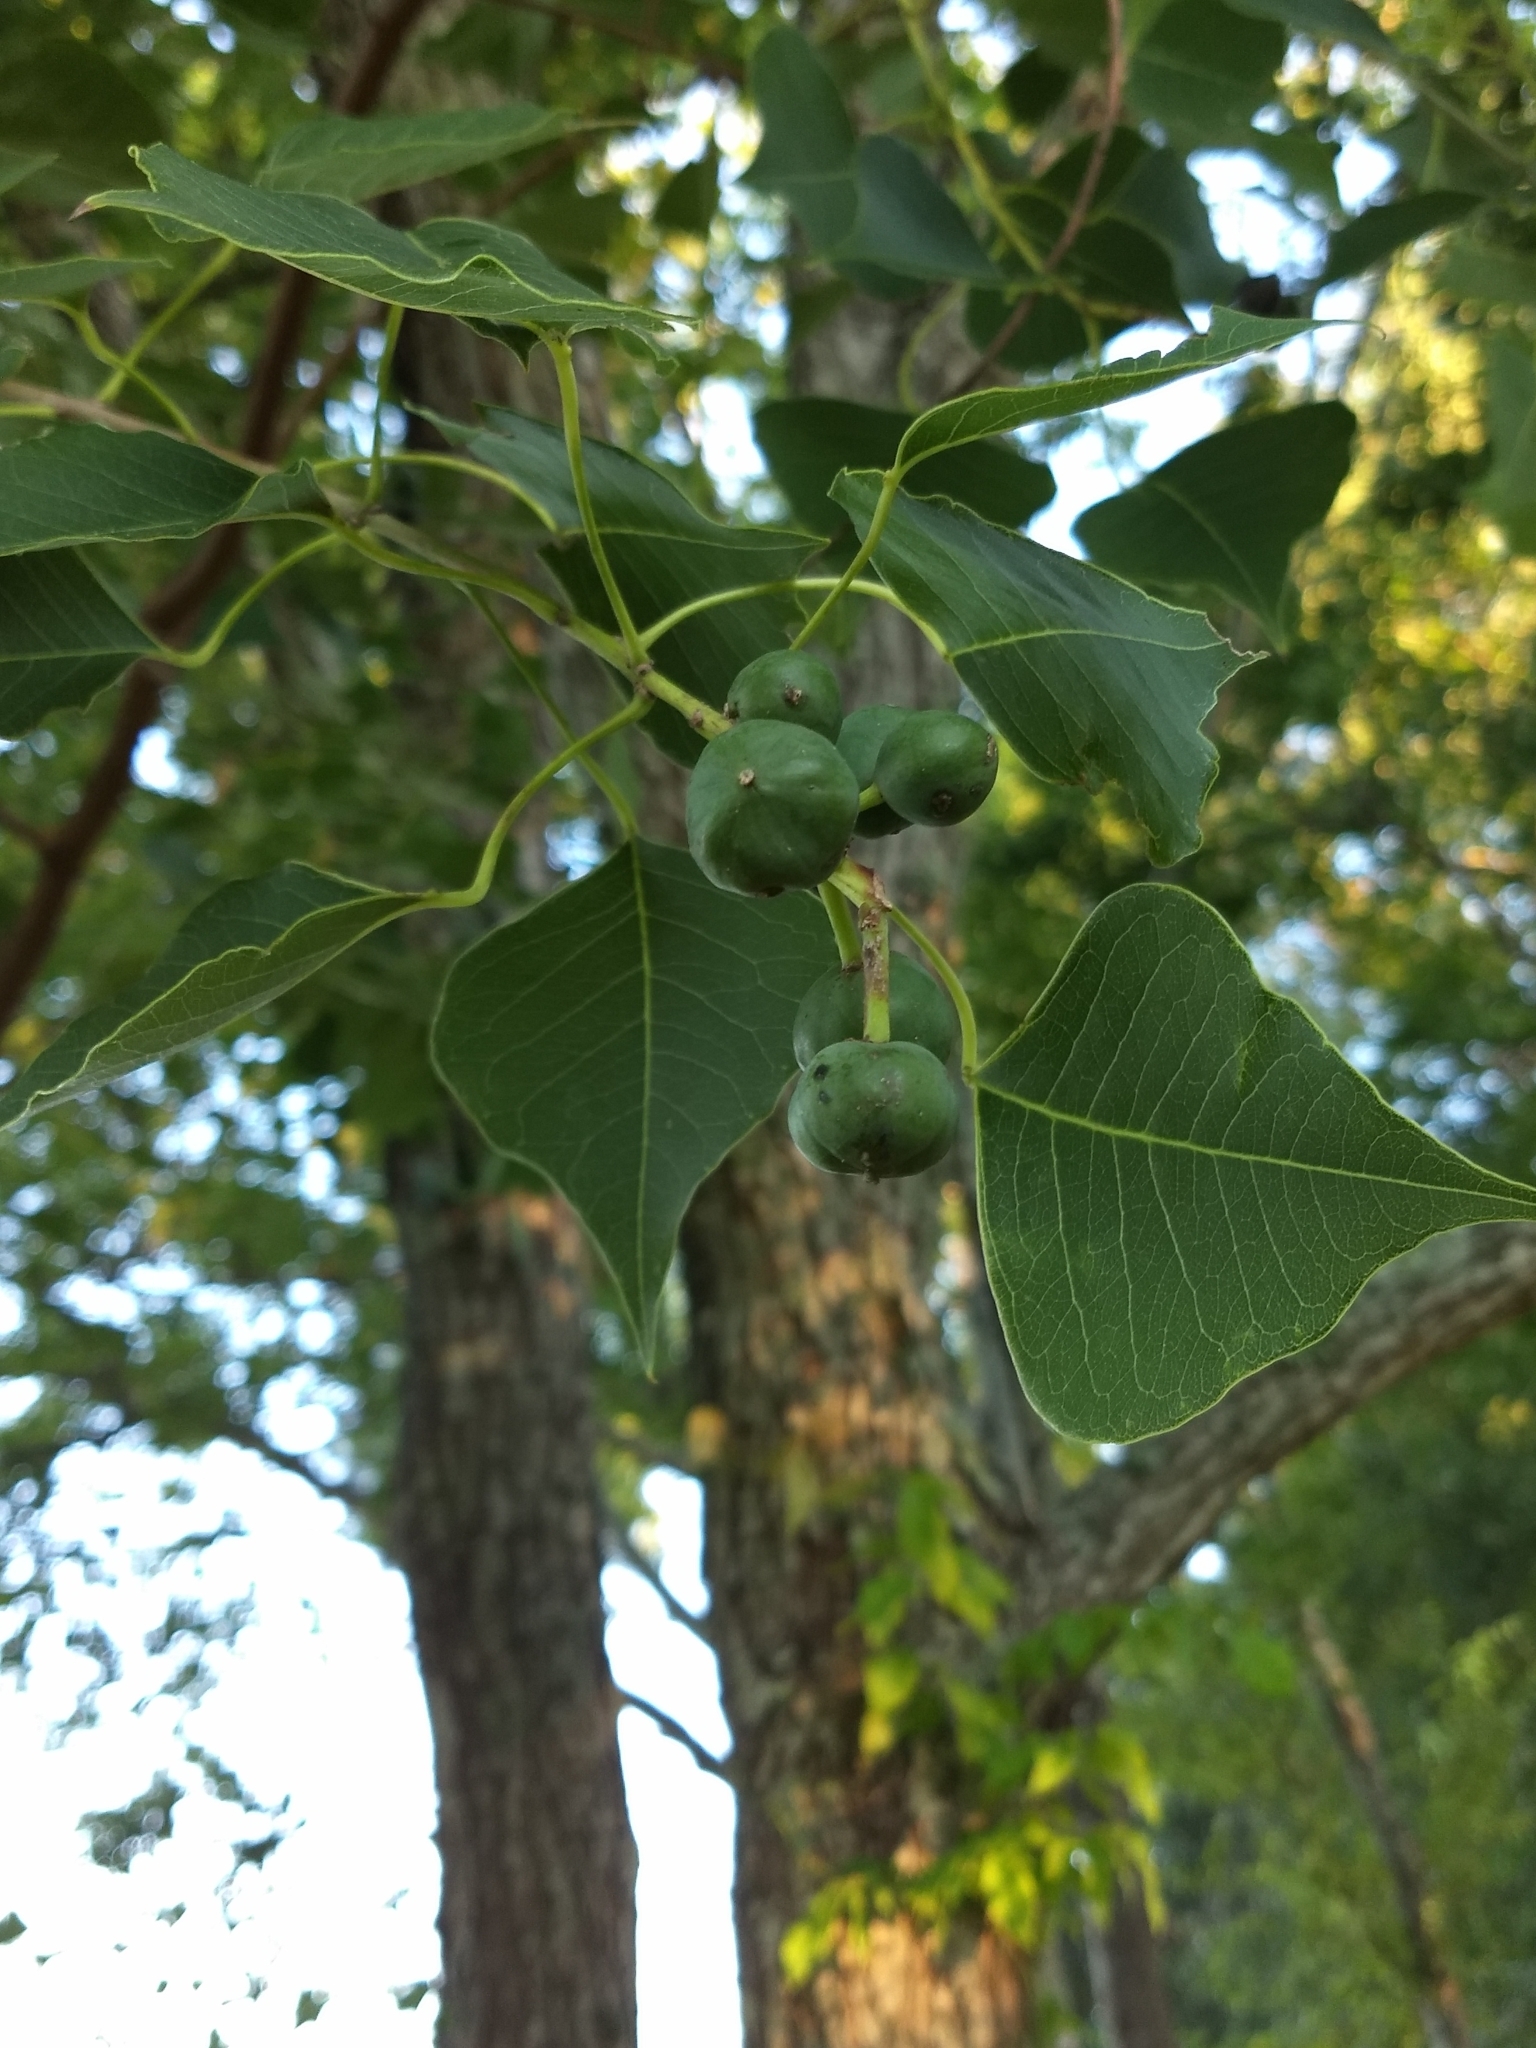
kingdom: Plantae
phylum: Tracheophyta
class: Magnoliopsida
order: Malpighiales
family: Euphorbiaceae
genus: Triadica
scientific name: Triadica sebifera
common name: Chinese tallow
